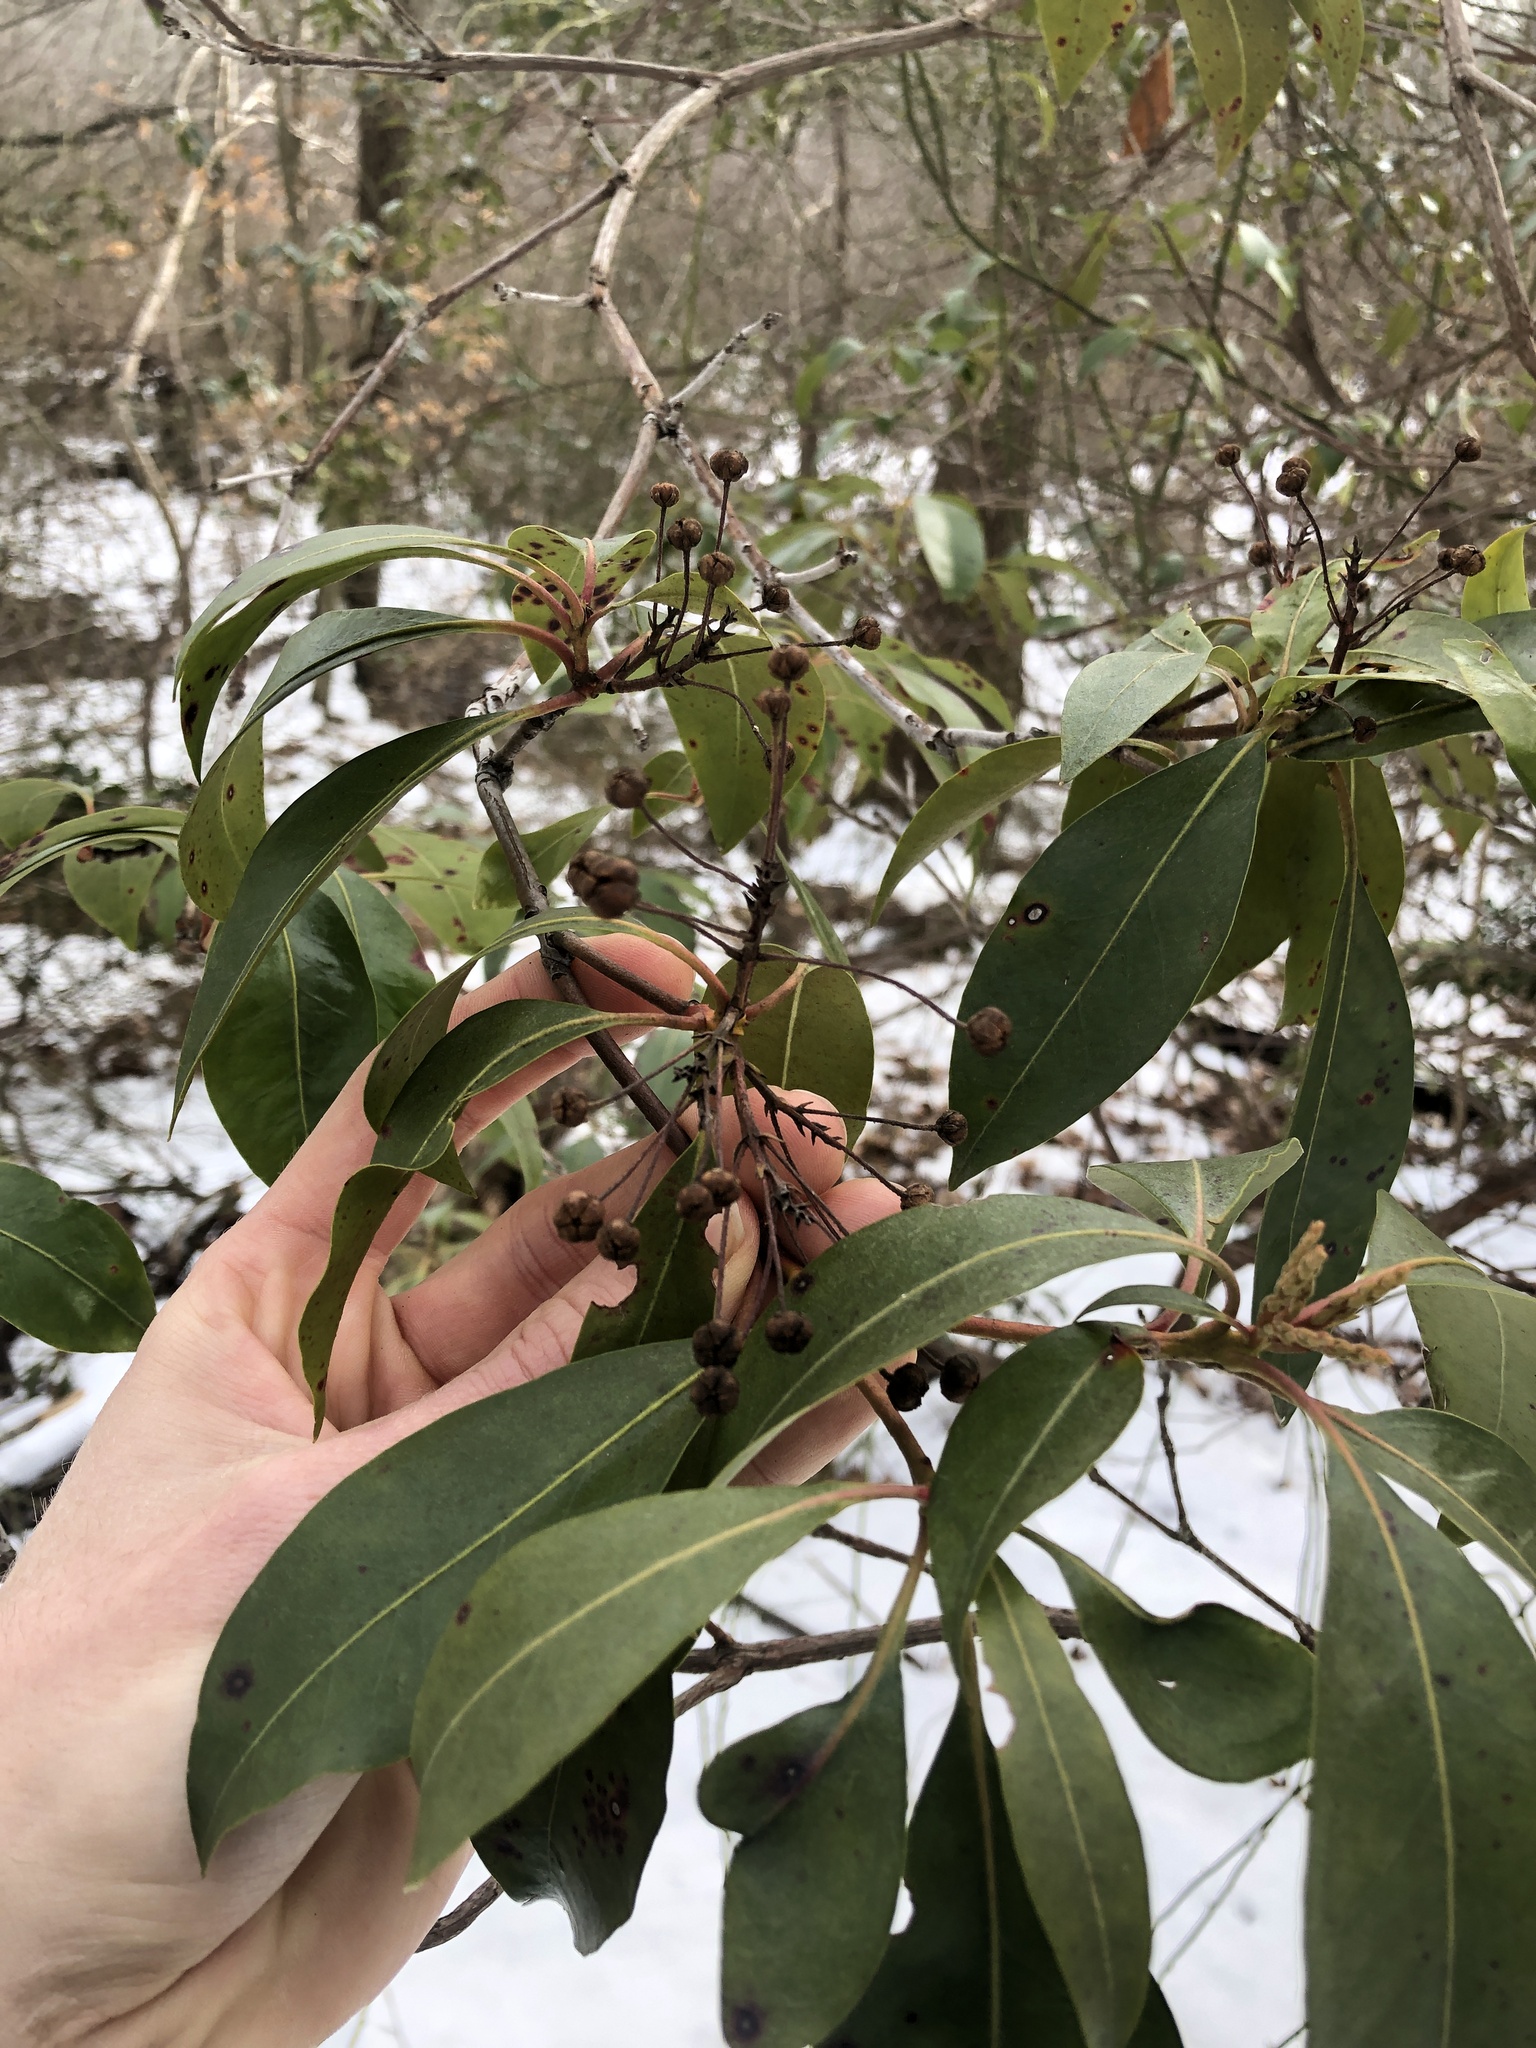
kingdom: Plantae
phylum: Tracheophyta
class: Magnoliopsida
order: Ericales
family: Ericaceae
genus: Kalmia
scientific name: Kalmia latifolia
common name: Mountain-laurel
